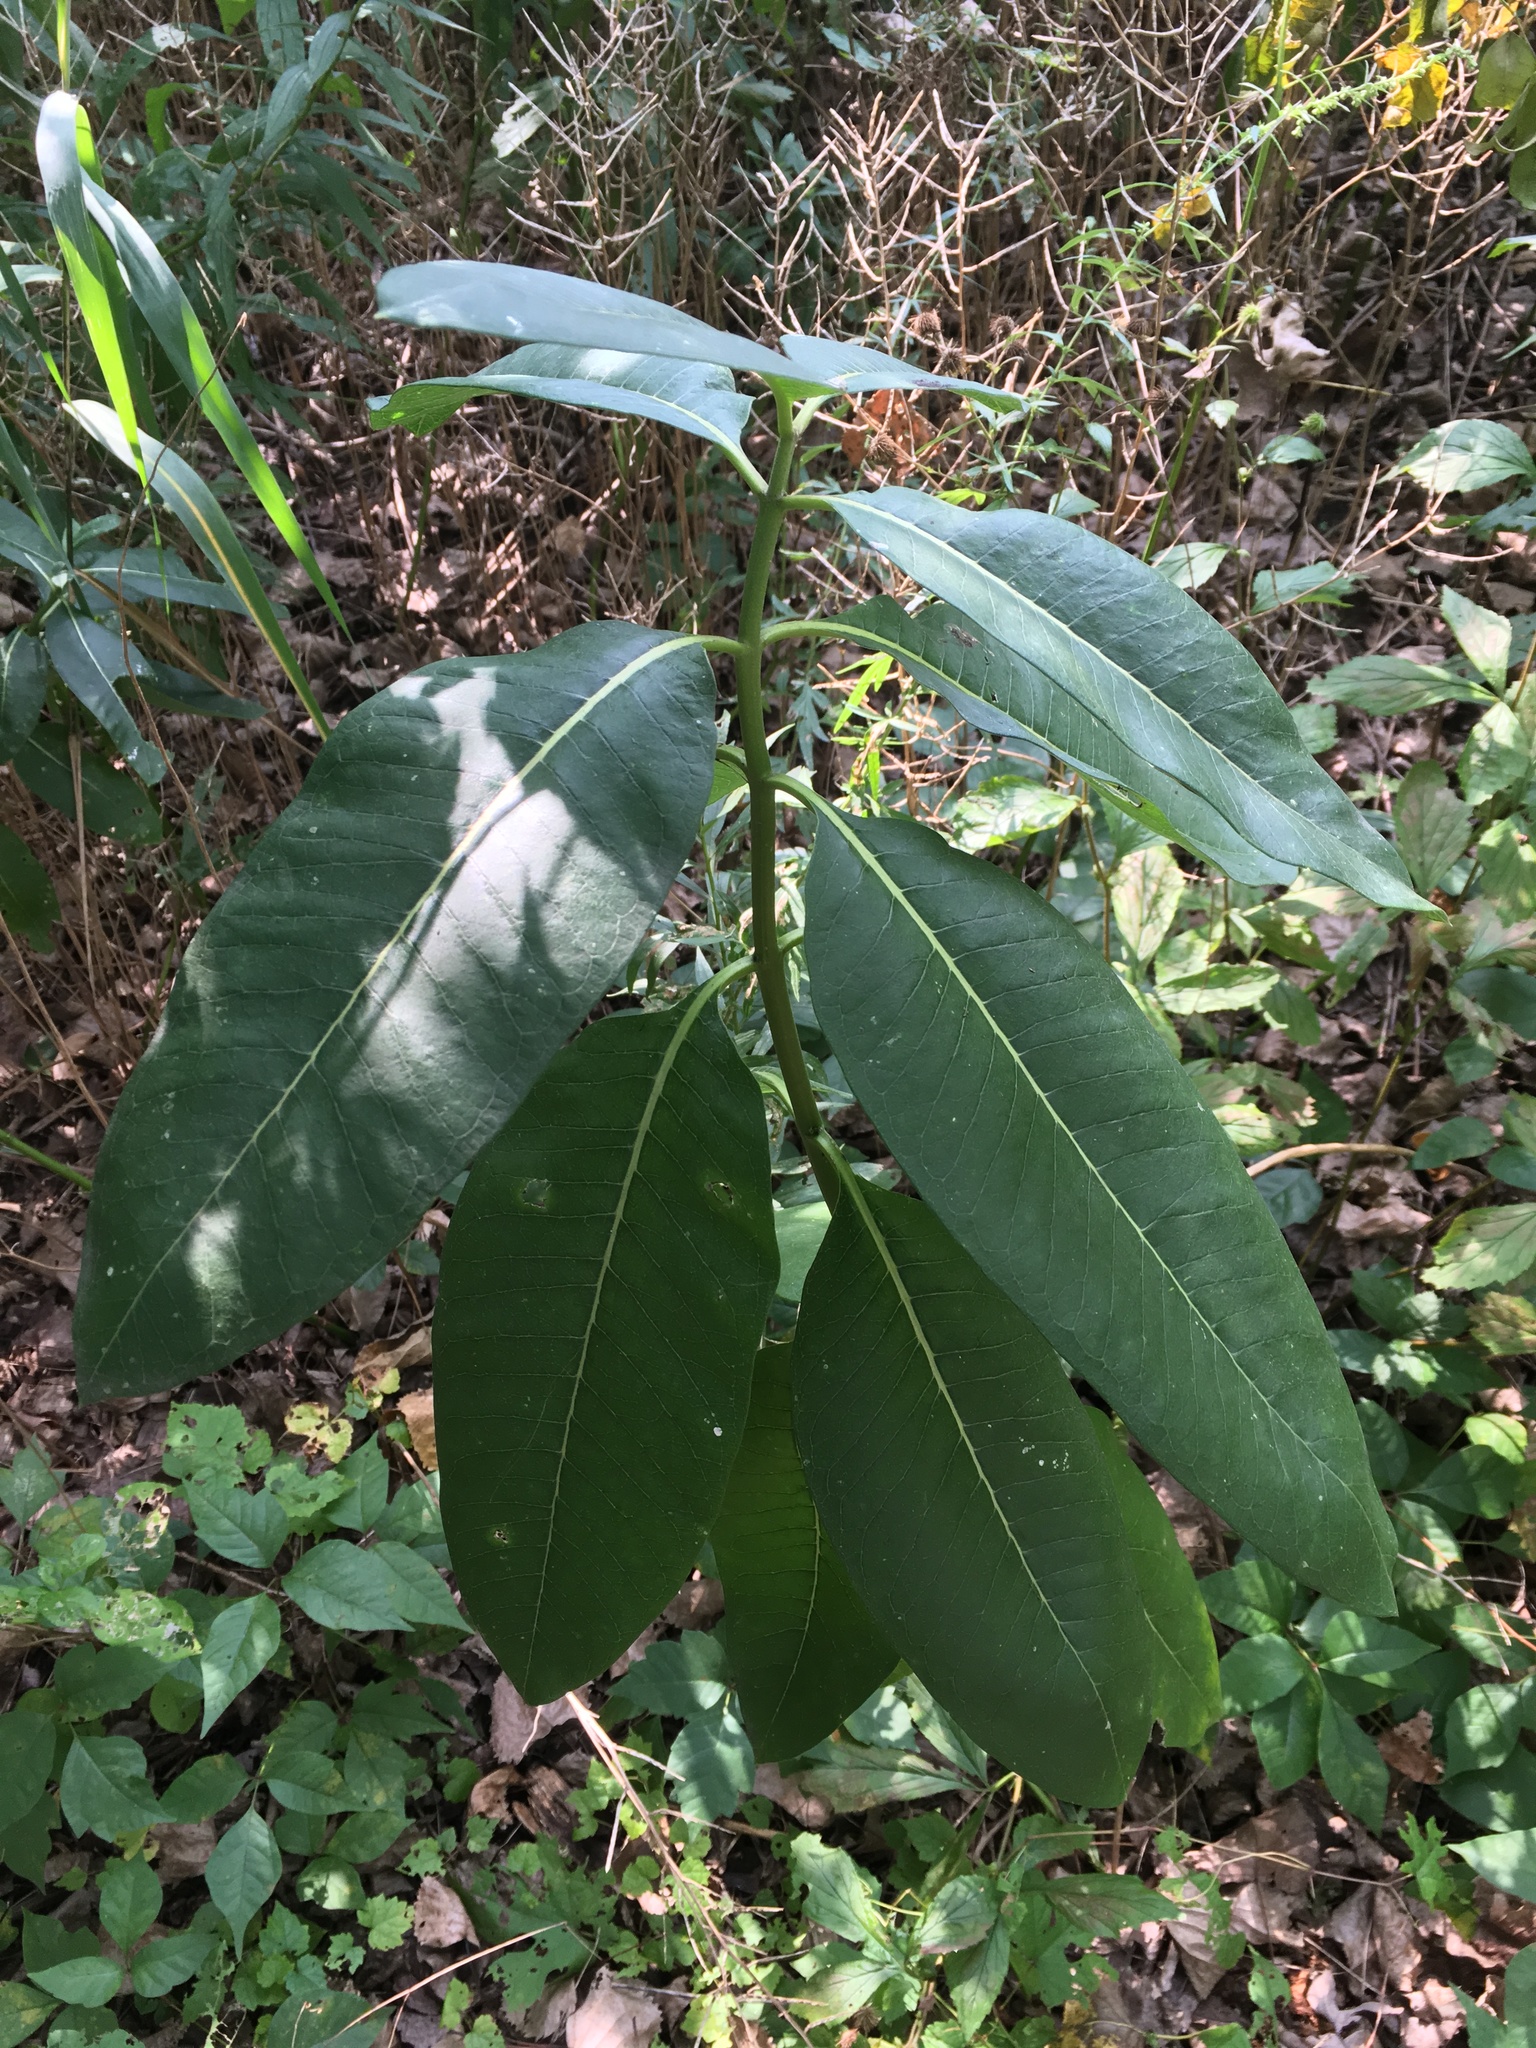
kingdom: Plantae
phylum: Tracheophyta
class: Magnoliopsida
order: Gentianales
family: Apocynaceae
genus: Asclepias
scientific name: Asclepias syriaca
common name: Common milkweed
